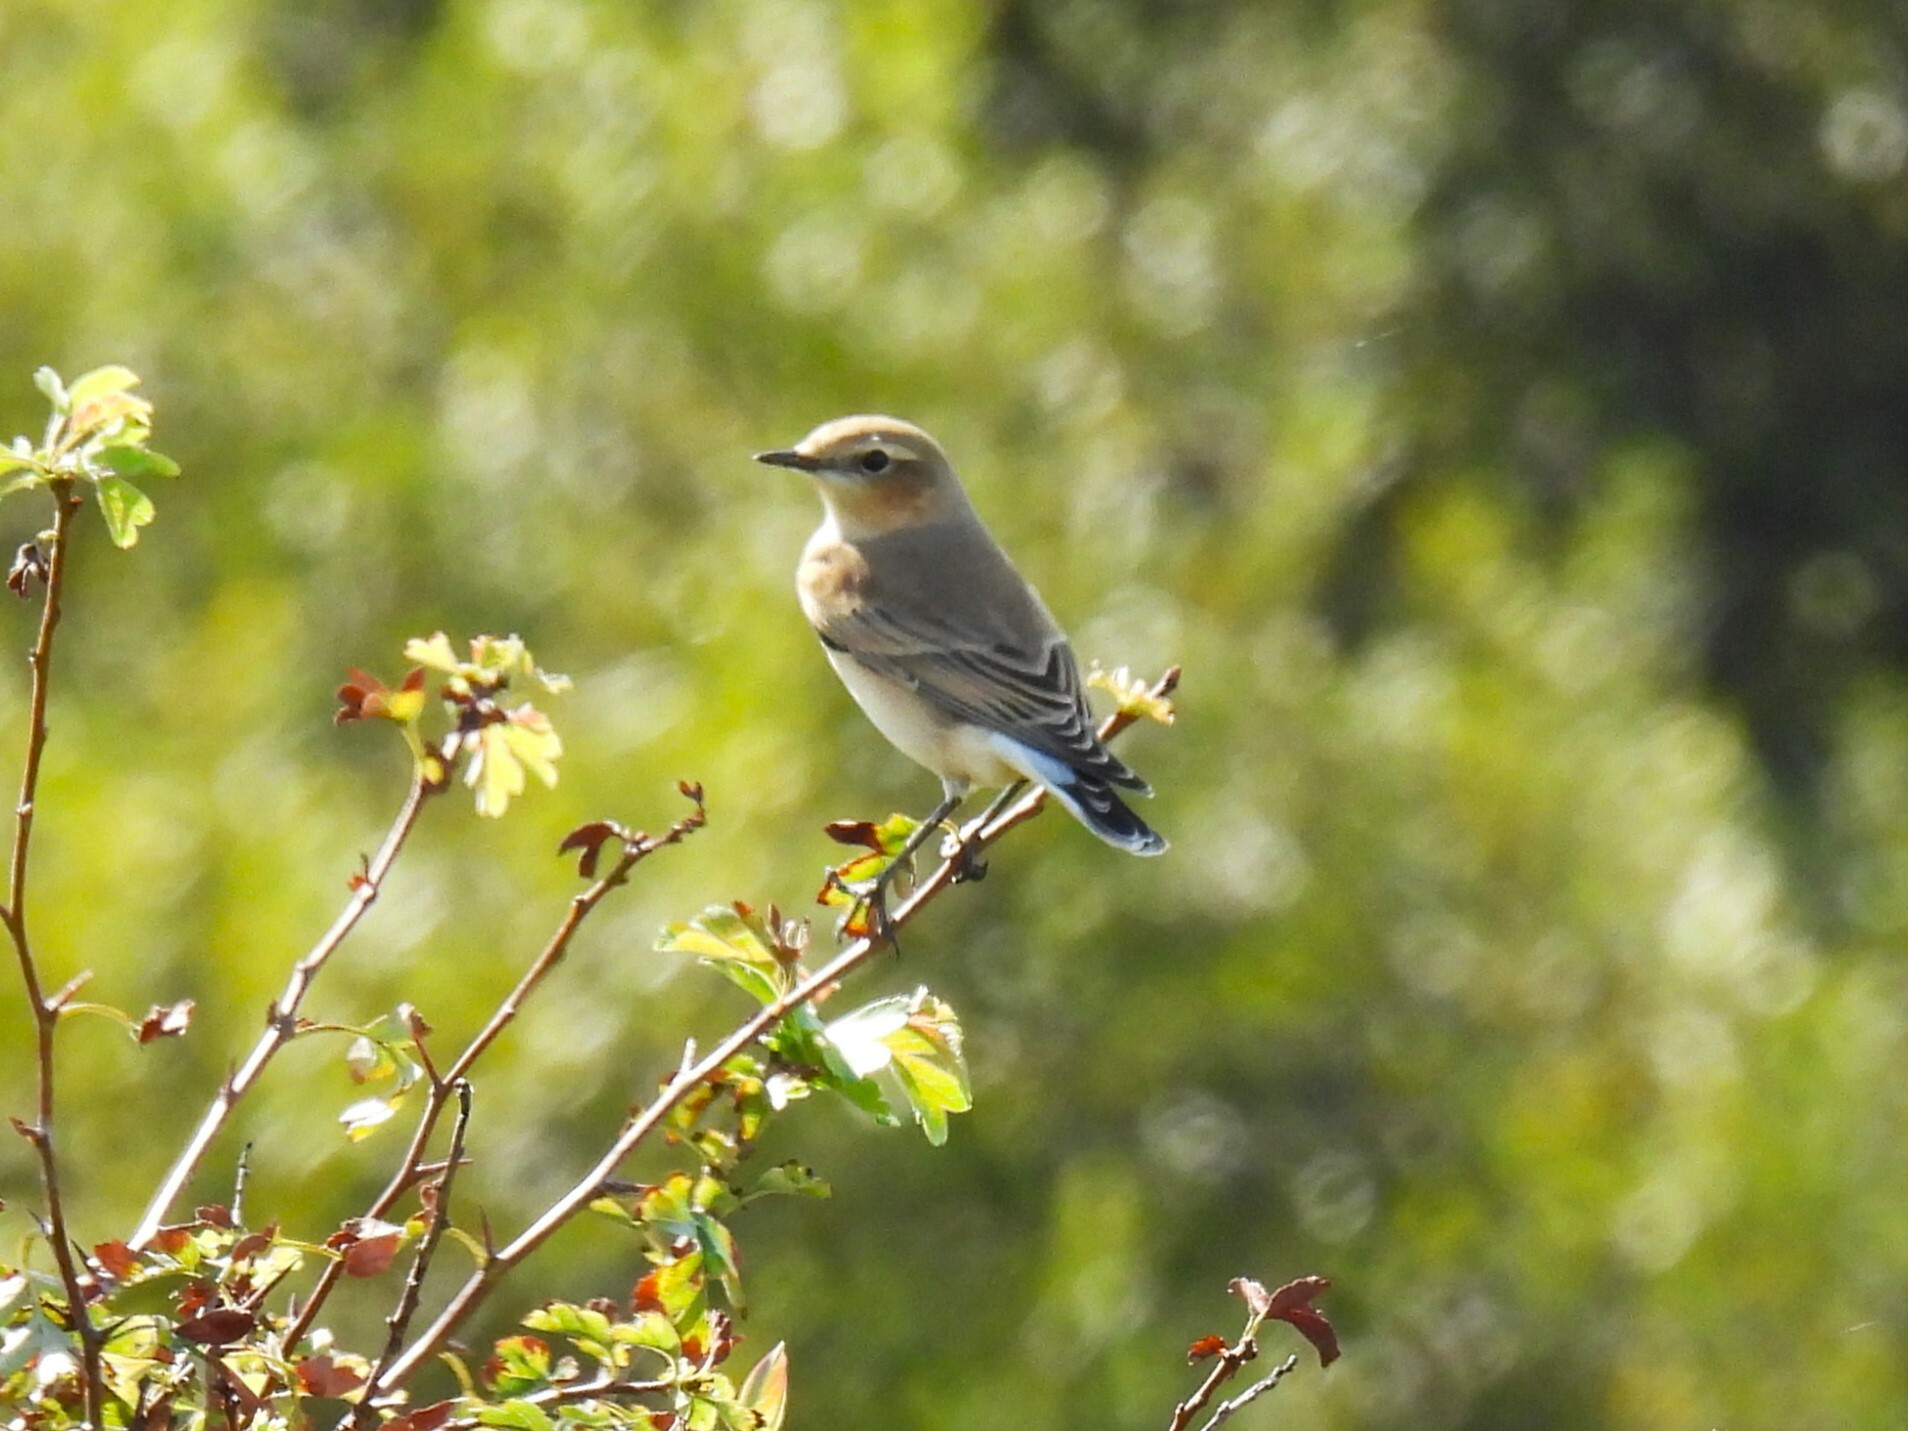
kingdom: Animalia
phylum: Chordata
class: Aves
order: Passeriformes
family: Muscicapidae
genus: Oenanthe
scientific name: Oenanthe oenanthe
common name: Northern wheatear
